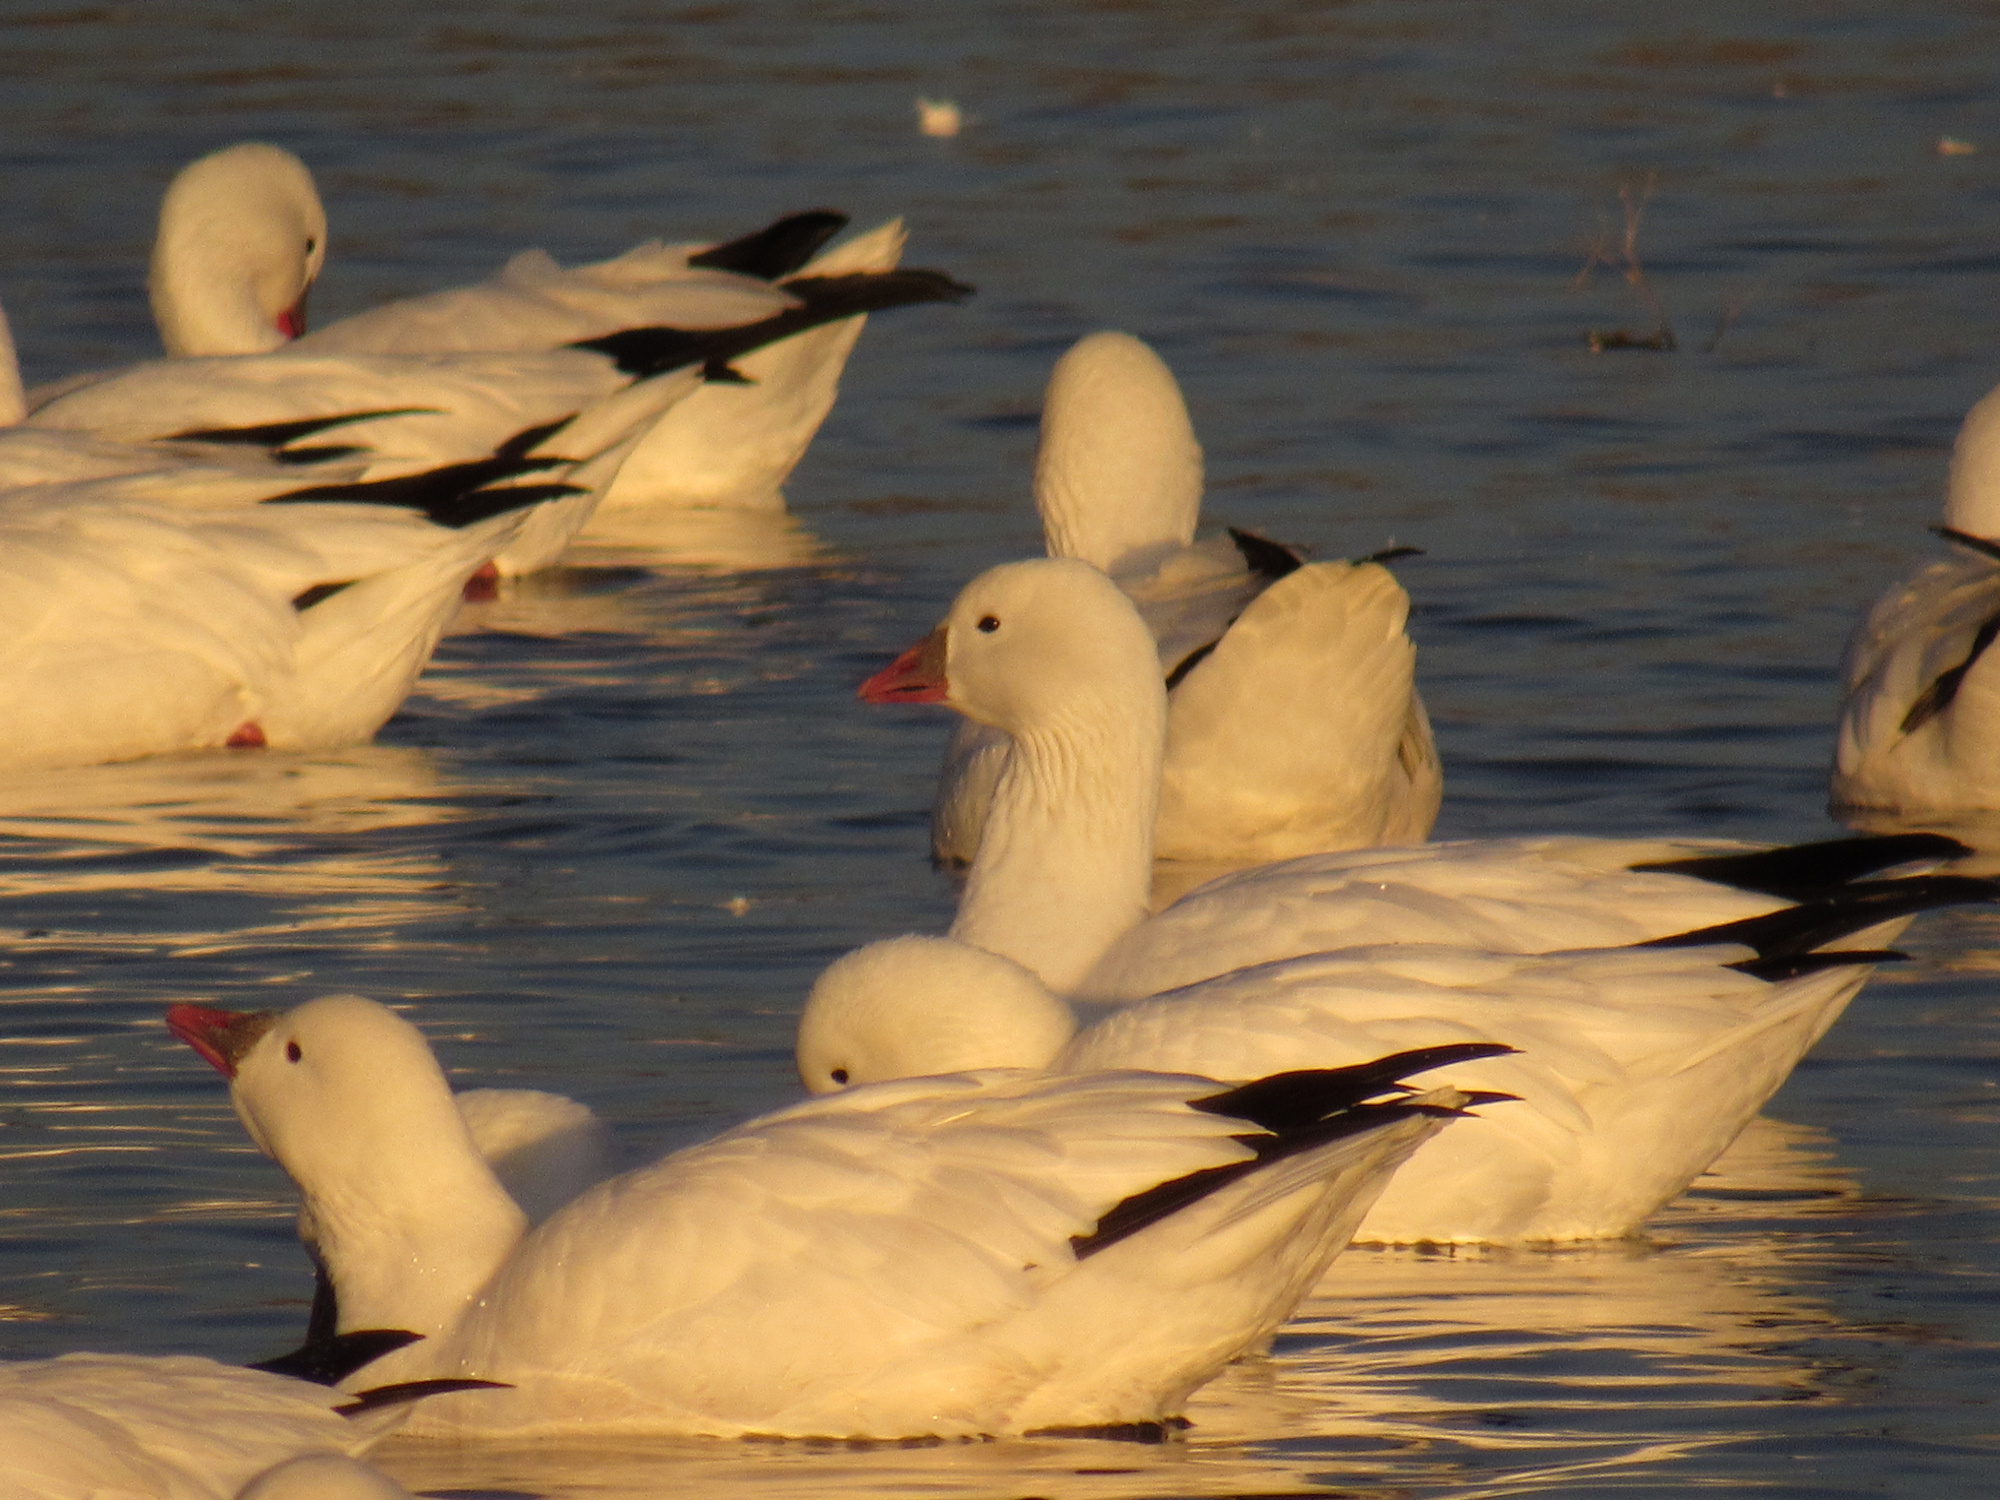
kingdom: Animalia
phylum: Chordata
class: Aves
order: Anseriformes
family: Anatidae
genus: Anser
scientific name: Anser rossii
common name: Ross's goose
